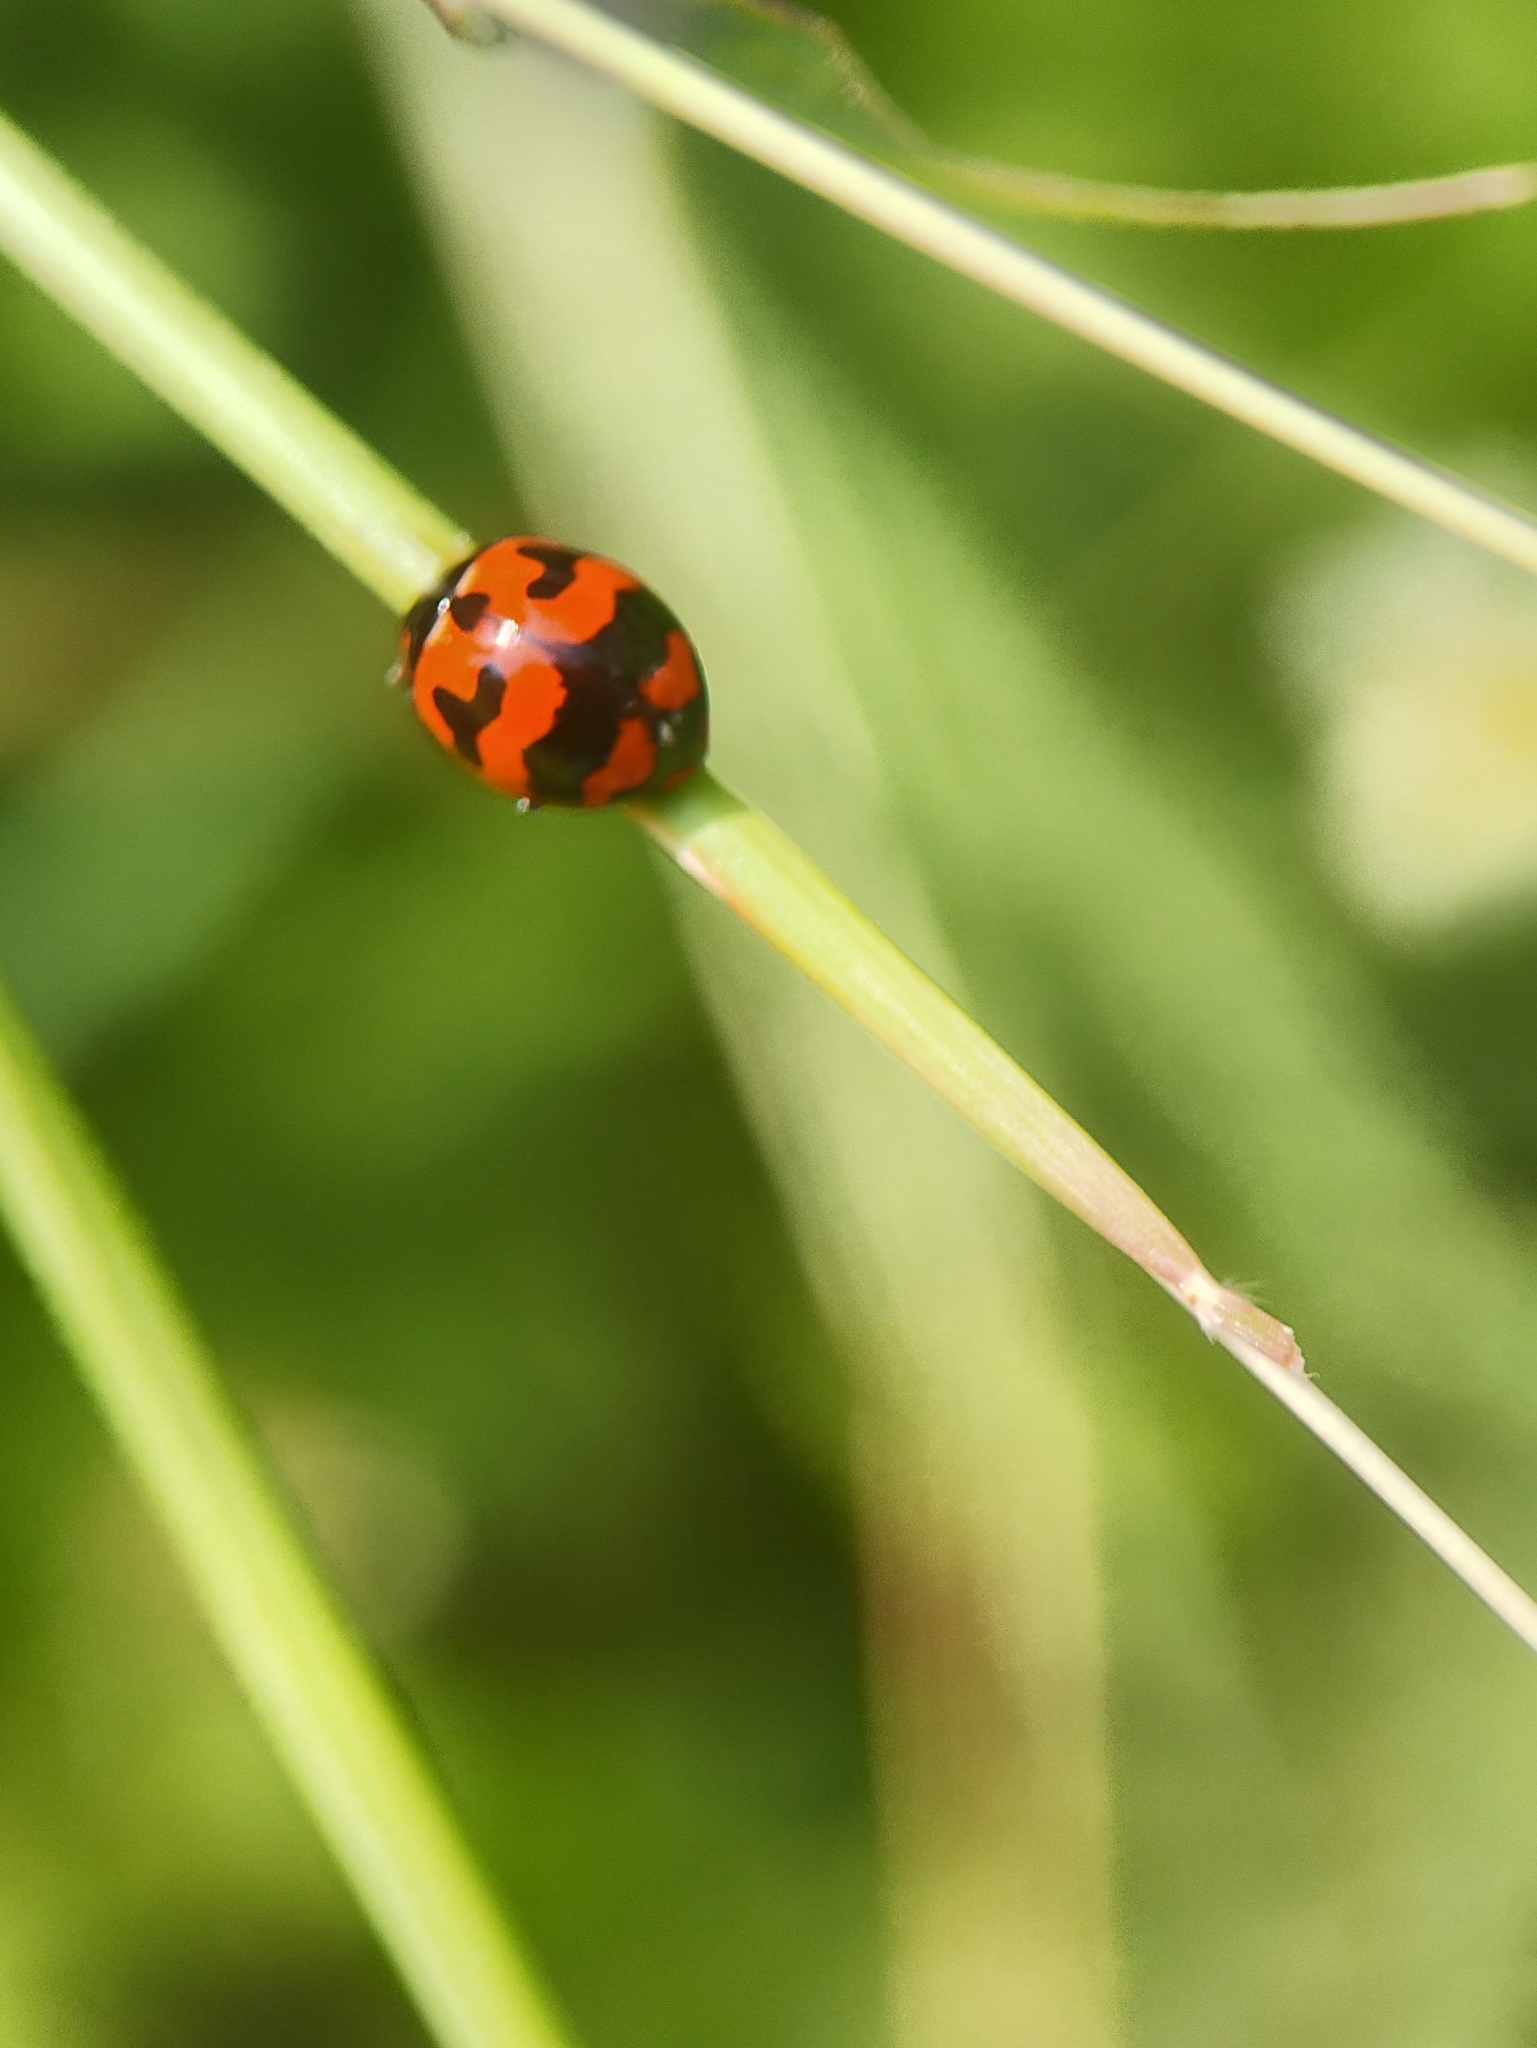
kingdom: Animalia
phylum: Arthropoda
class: Insecta
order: Coleoptera
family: Coccinellidae
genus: Coccinella
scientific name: Coccinella transversalis
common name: Transverse lady beetle
